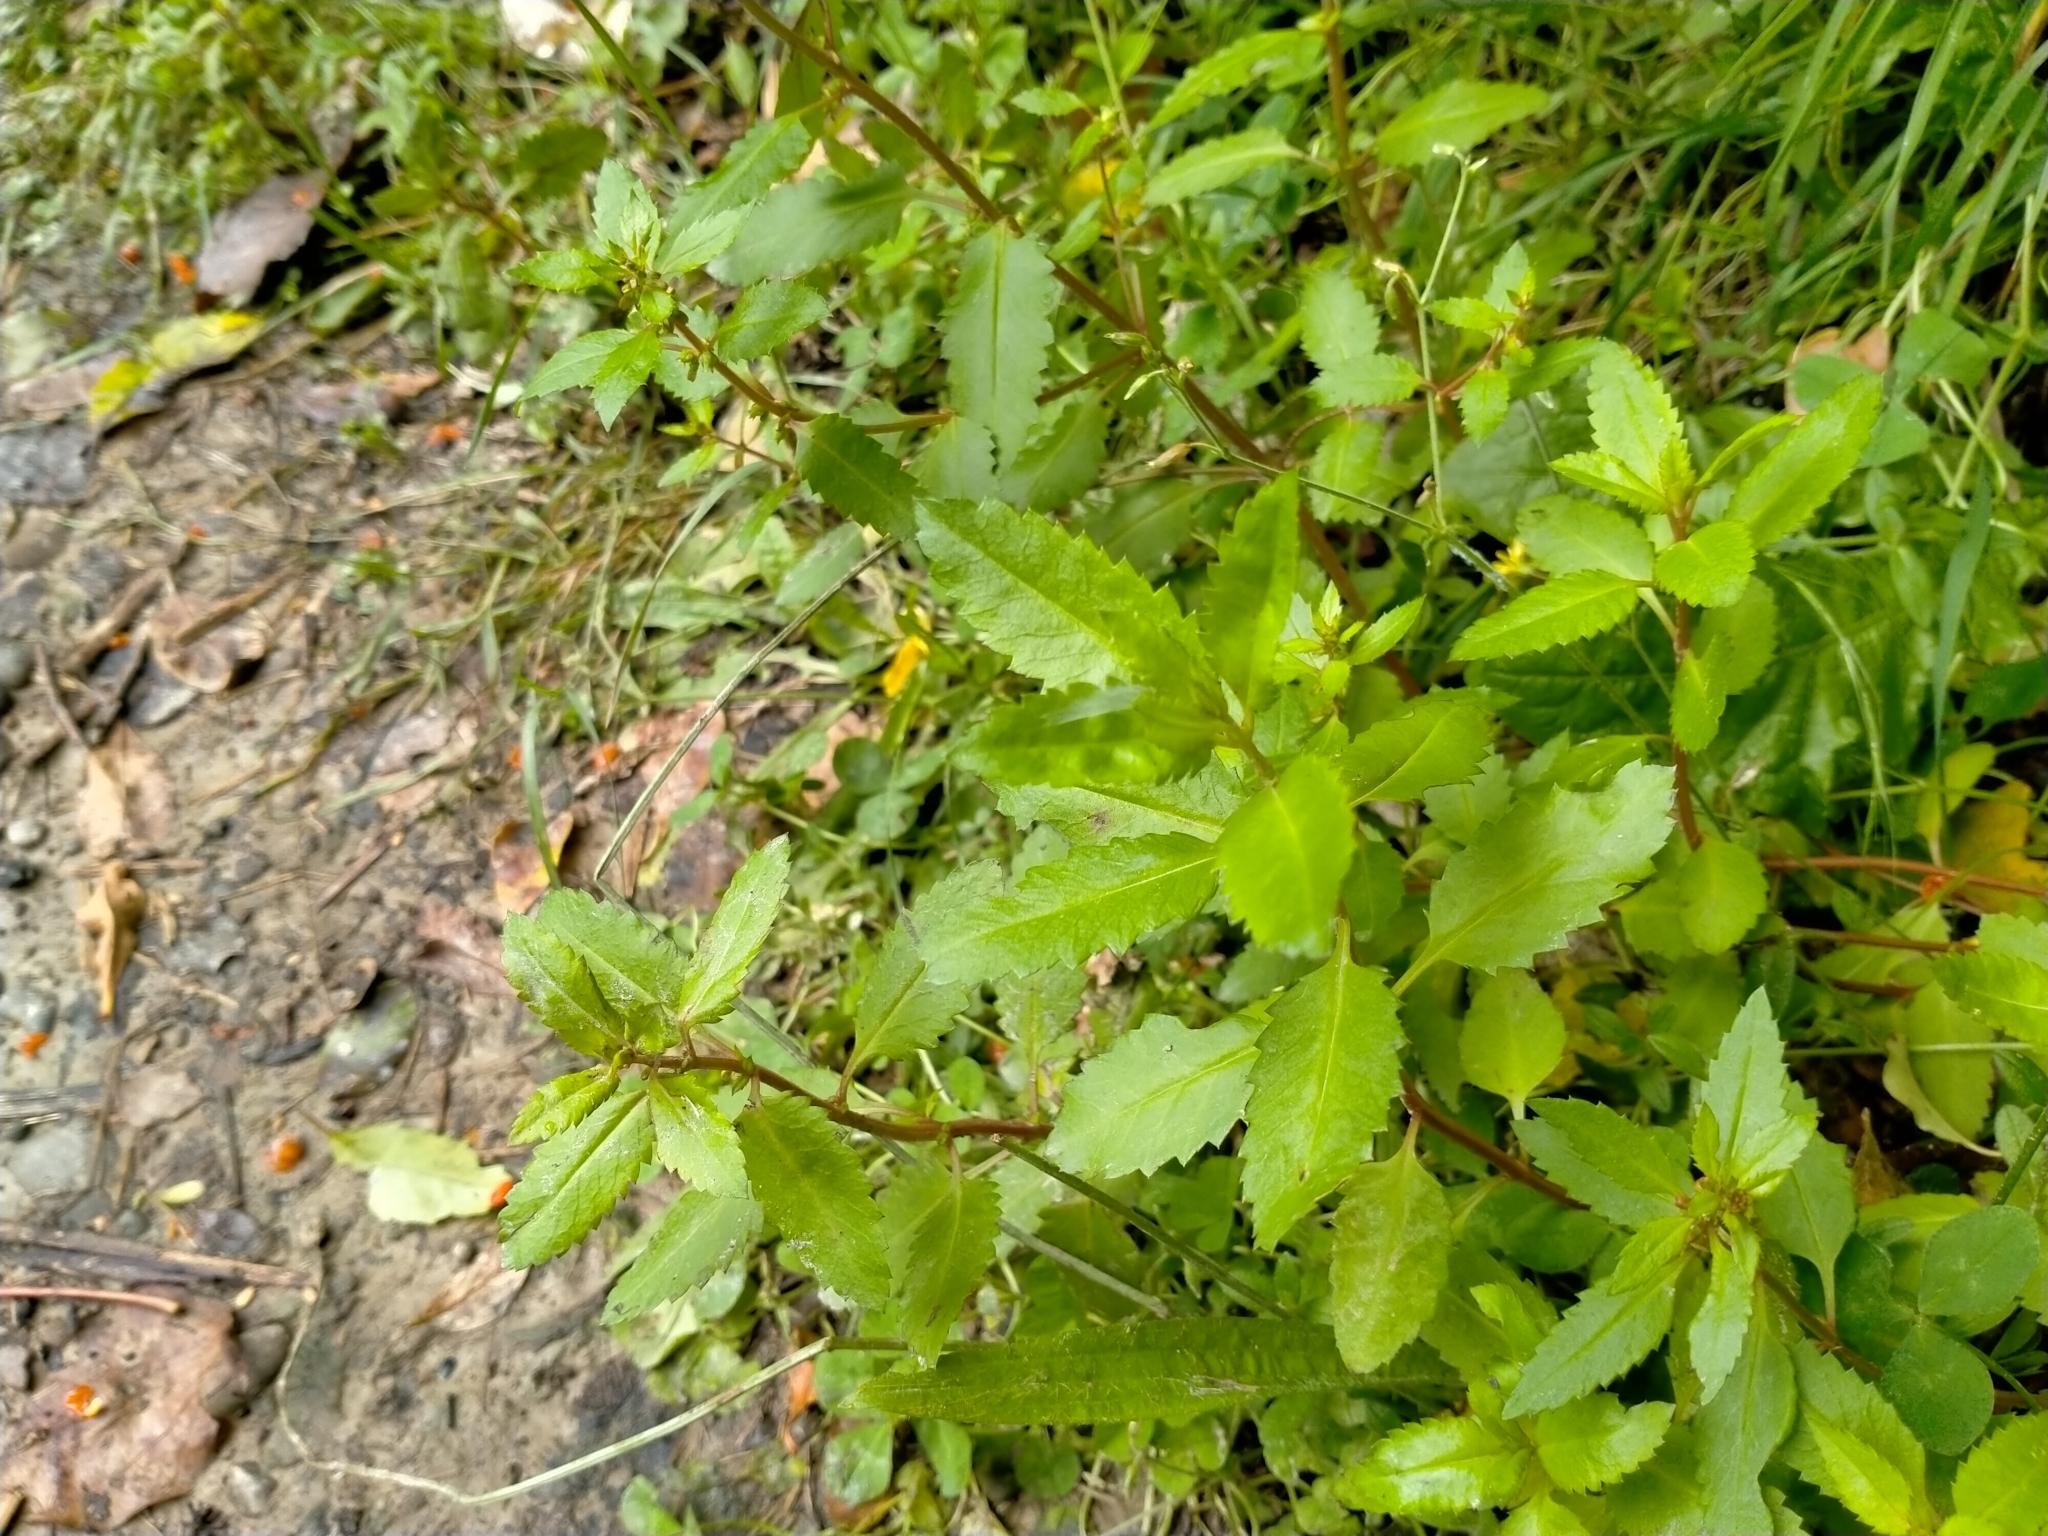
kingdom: Plantae
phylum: Tracheophyta
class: Magnoliopsida
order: Saxifragales
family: Haloragaceae
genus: Haloragis
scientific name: Haloragis erecta
